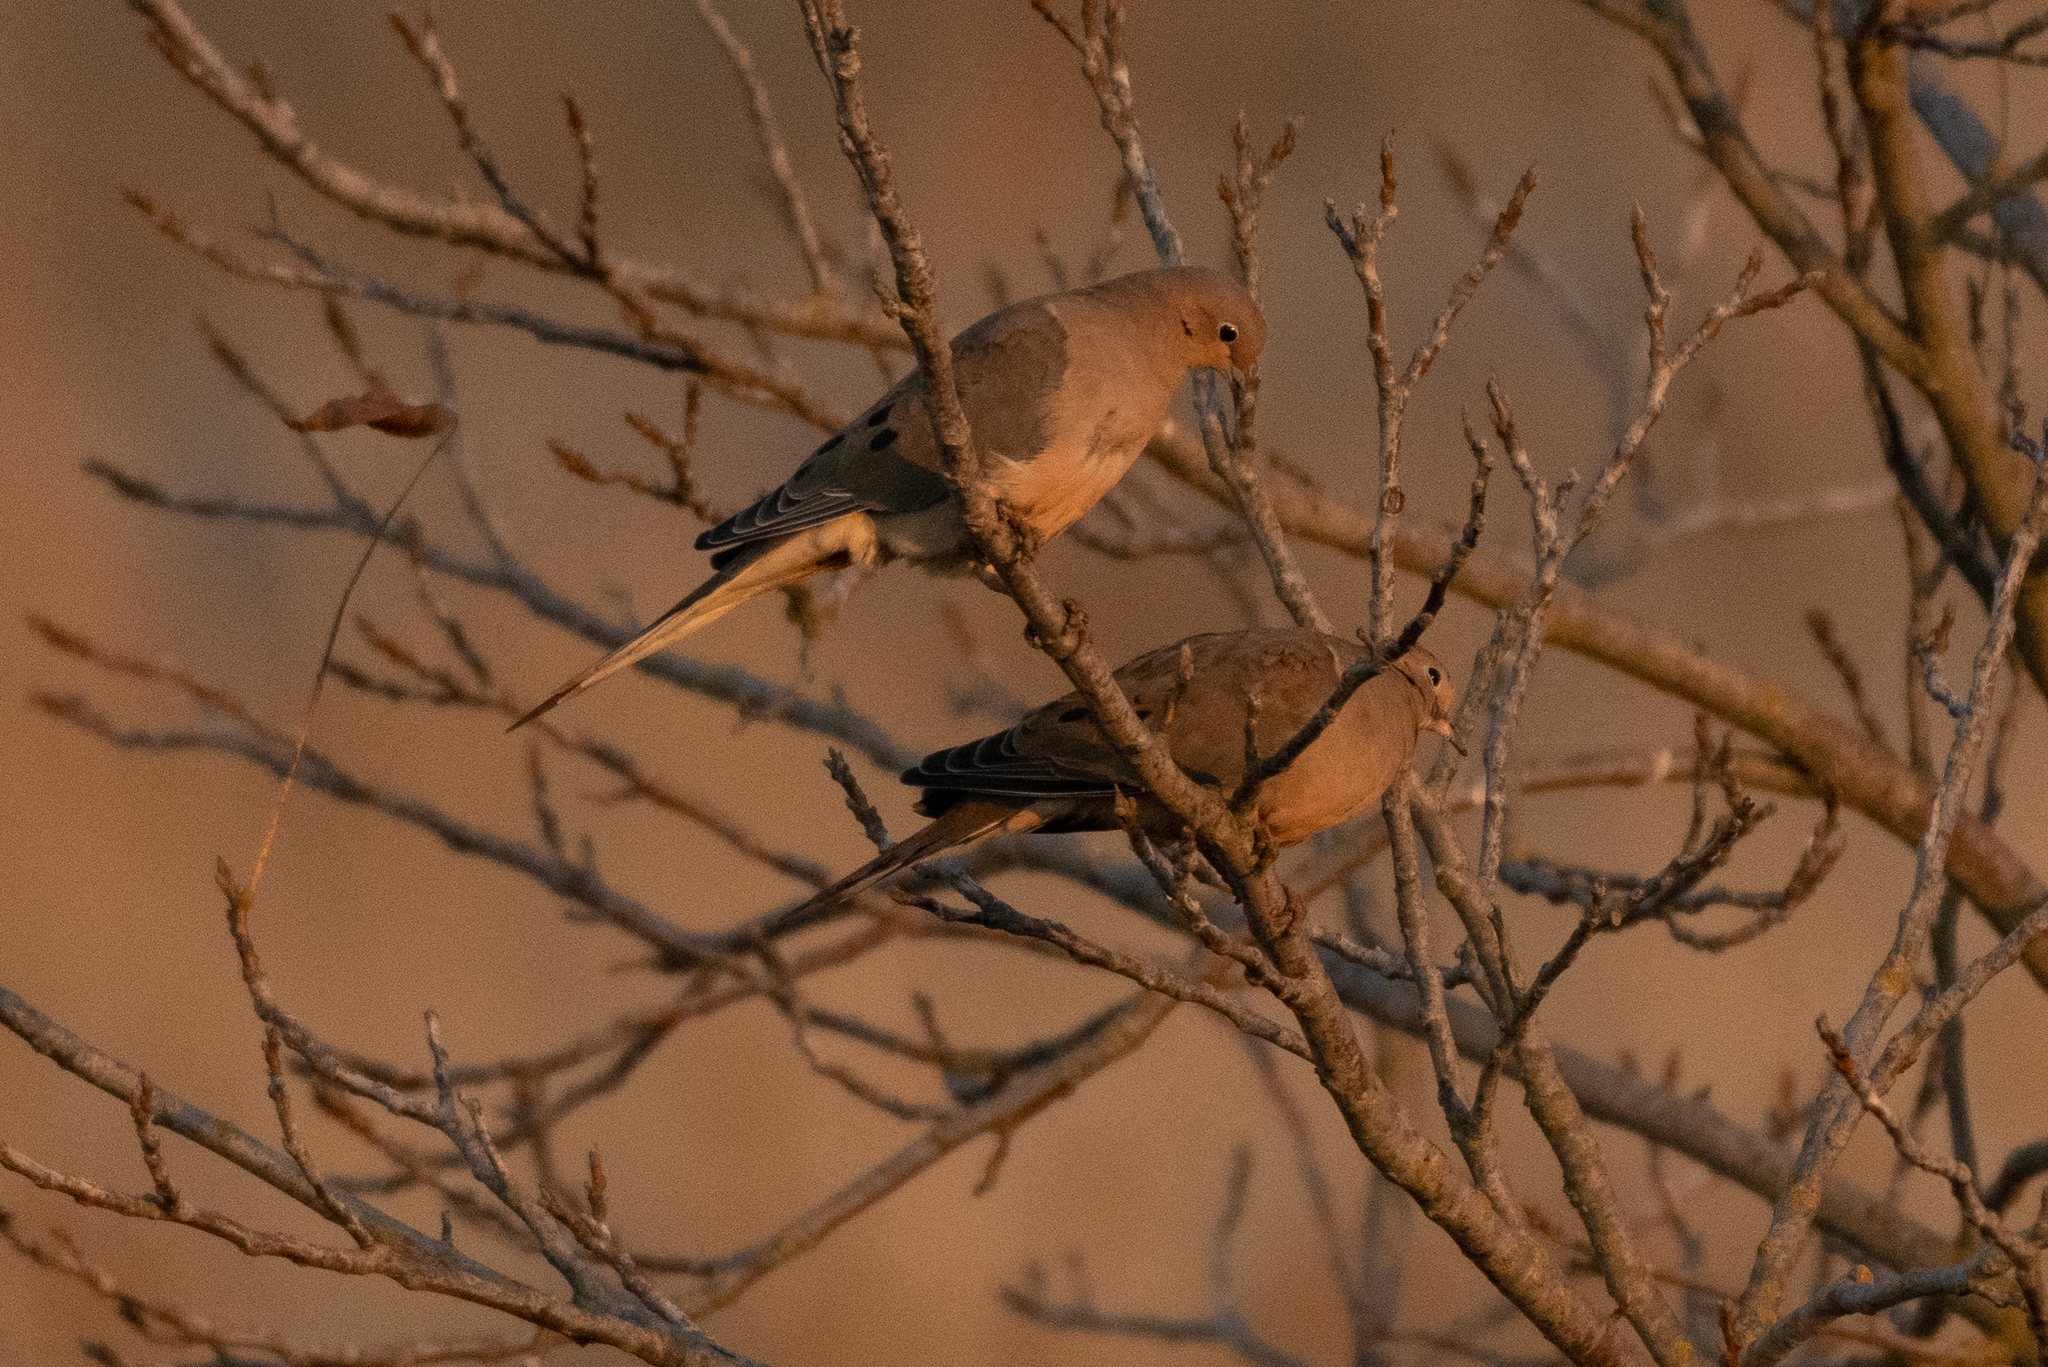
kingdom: Animalia
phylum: Chordata
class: Aves
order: Columbiformes
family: Columbidae
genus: Zenaida
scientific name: Zenaida macroura
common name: Mourning dove
